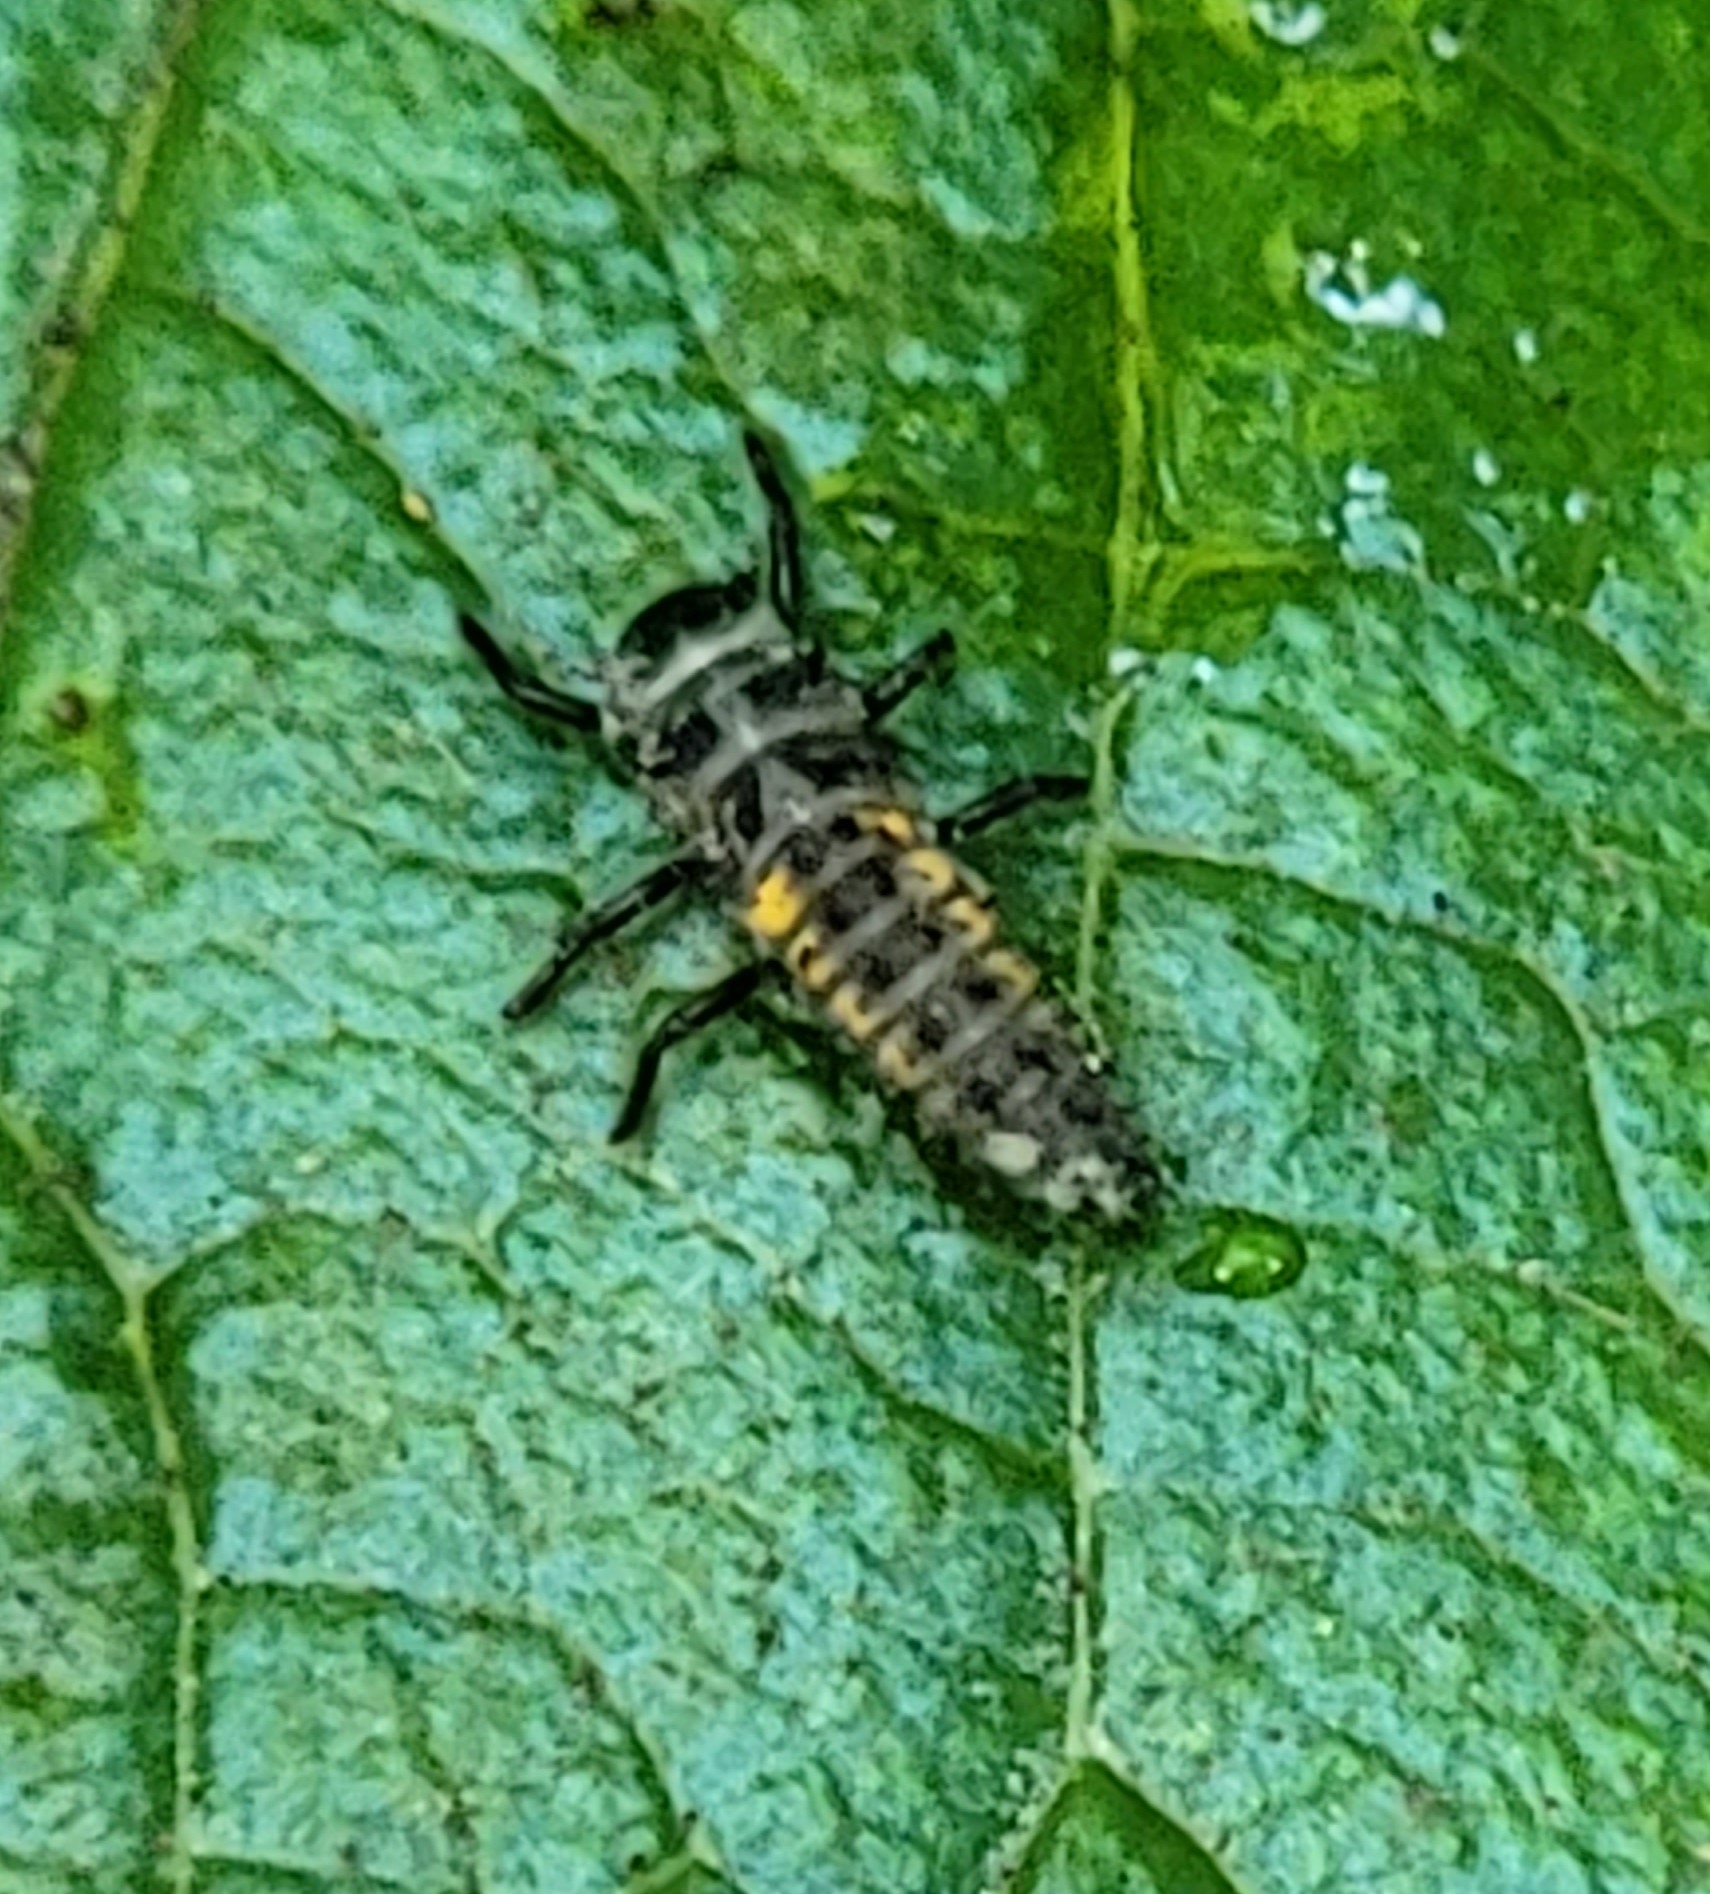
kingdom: Animalia
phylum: Arthropoda
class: Insecta
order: Coleoptera
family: Coccinellidae
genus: Harmonia
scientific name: Harmonia axyridis
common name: Harlequin ladybird
